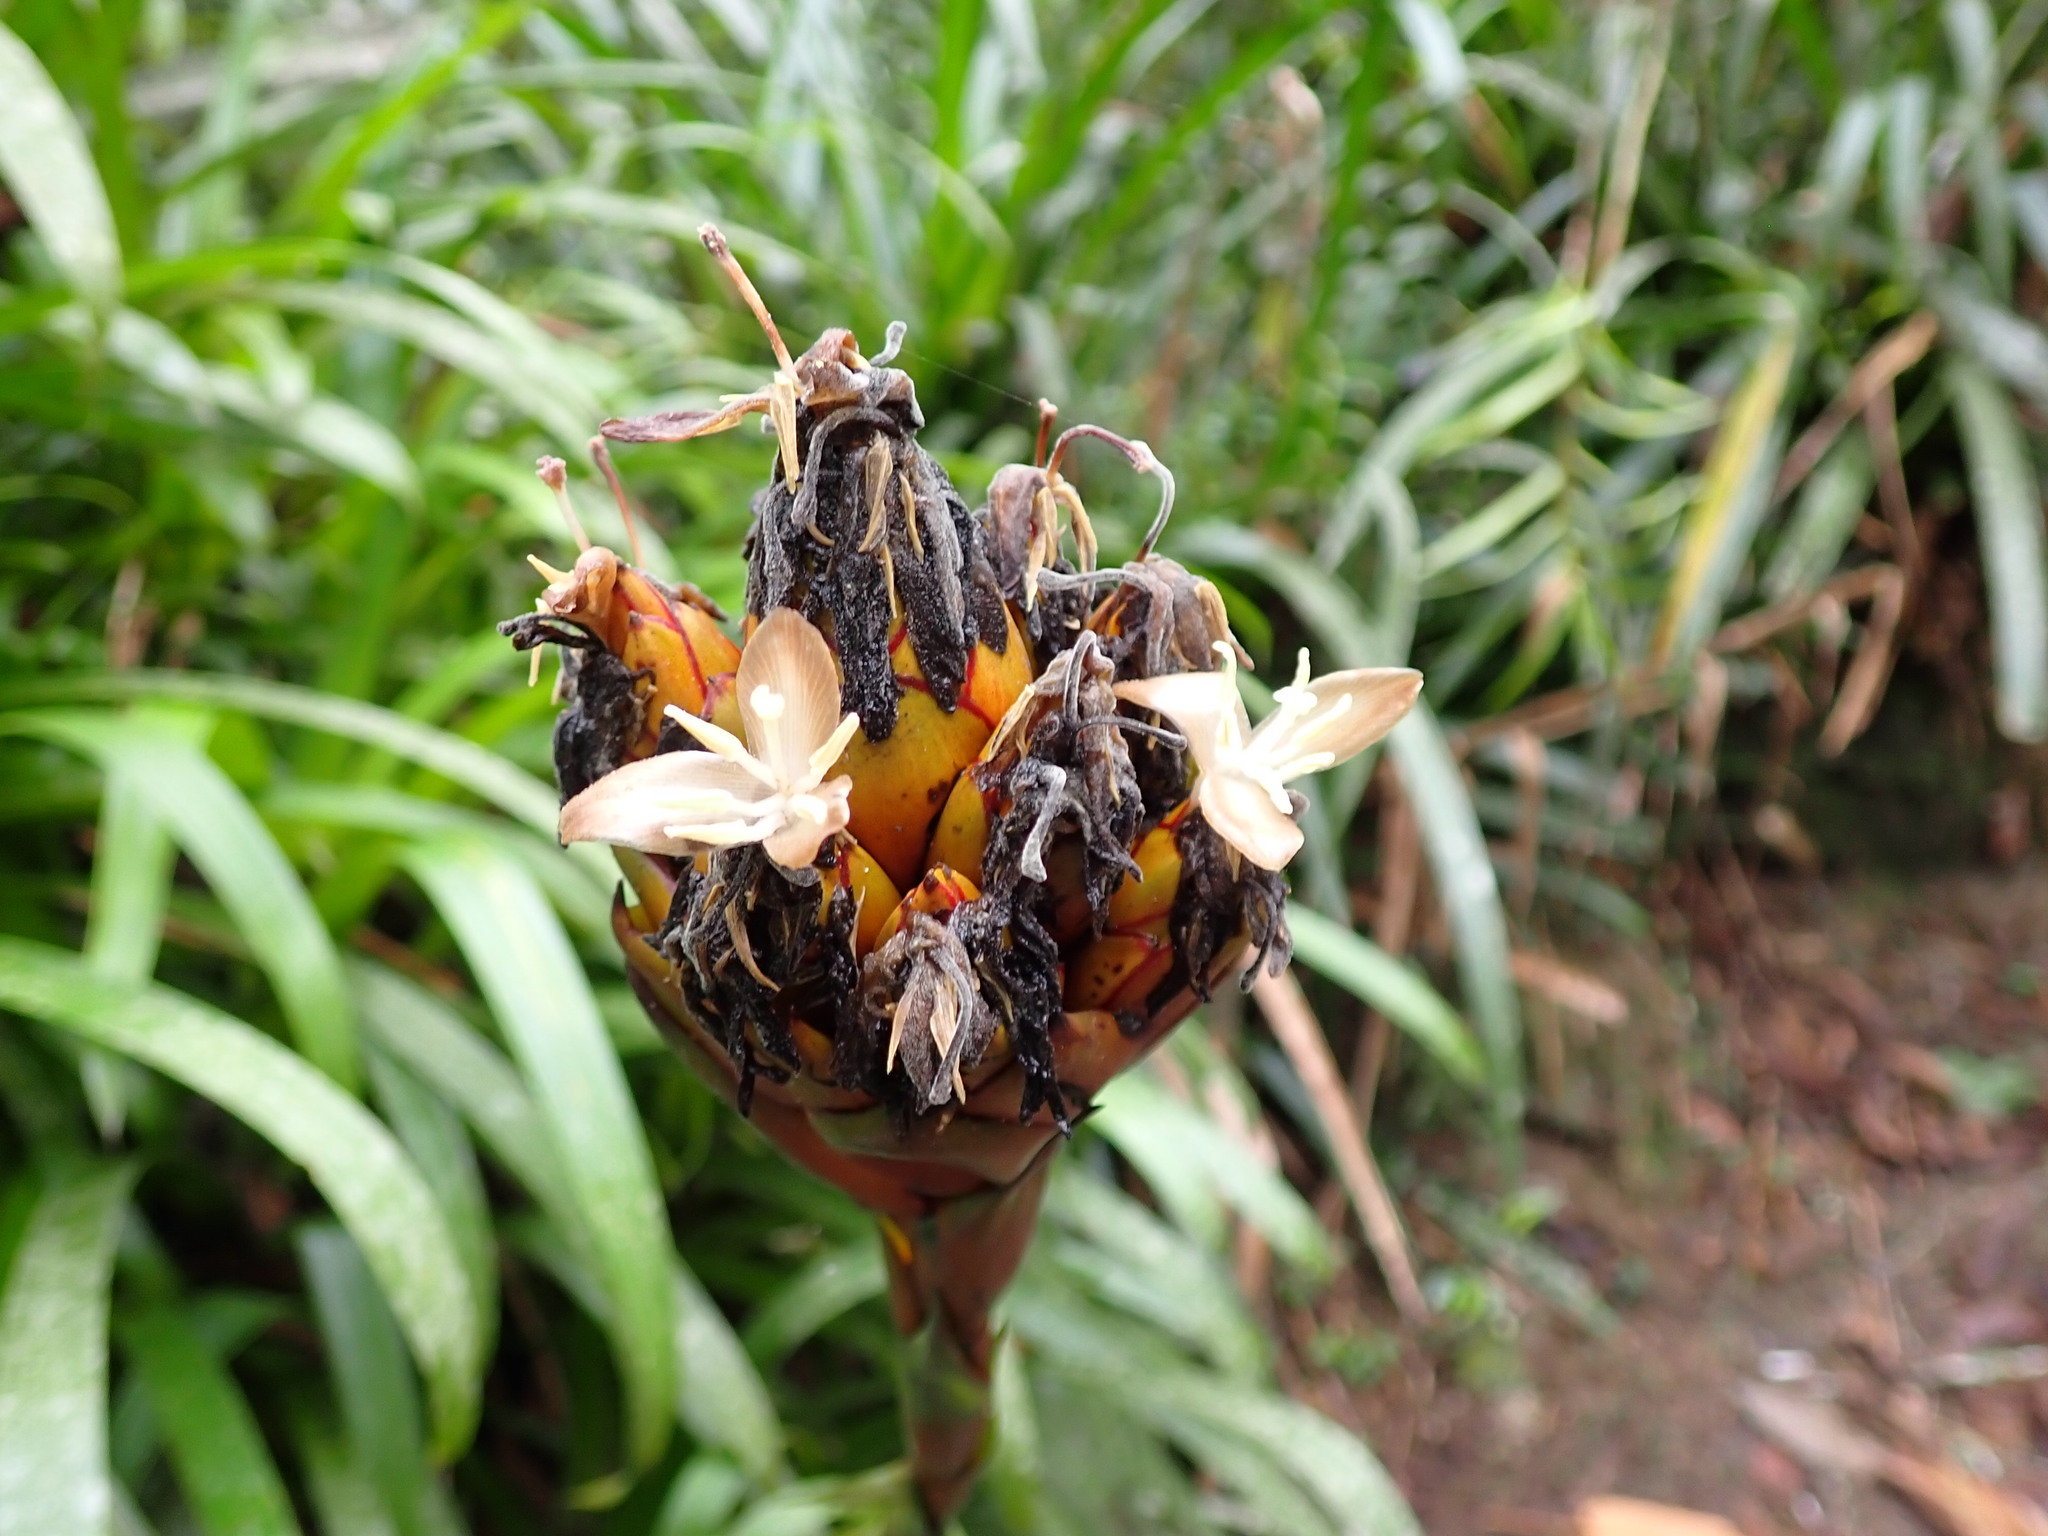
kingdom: Plantae
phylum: Tracheophyta
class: Liliopsida
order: Poales
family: Bromeliaceae
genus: Guzmania
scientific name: Guzmania inkaterrae
